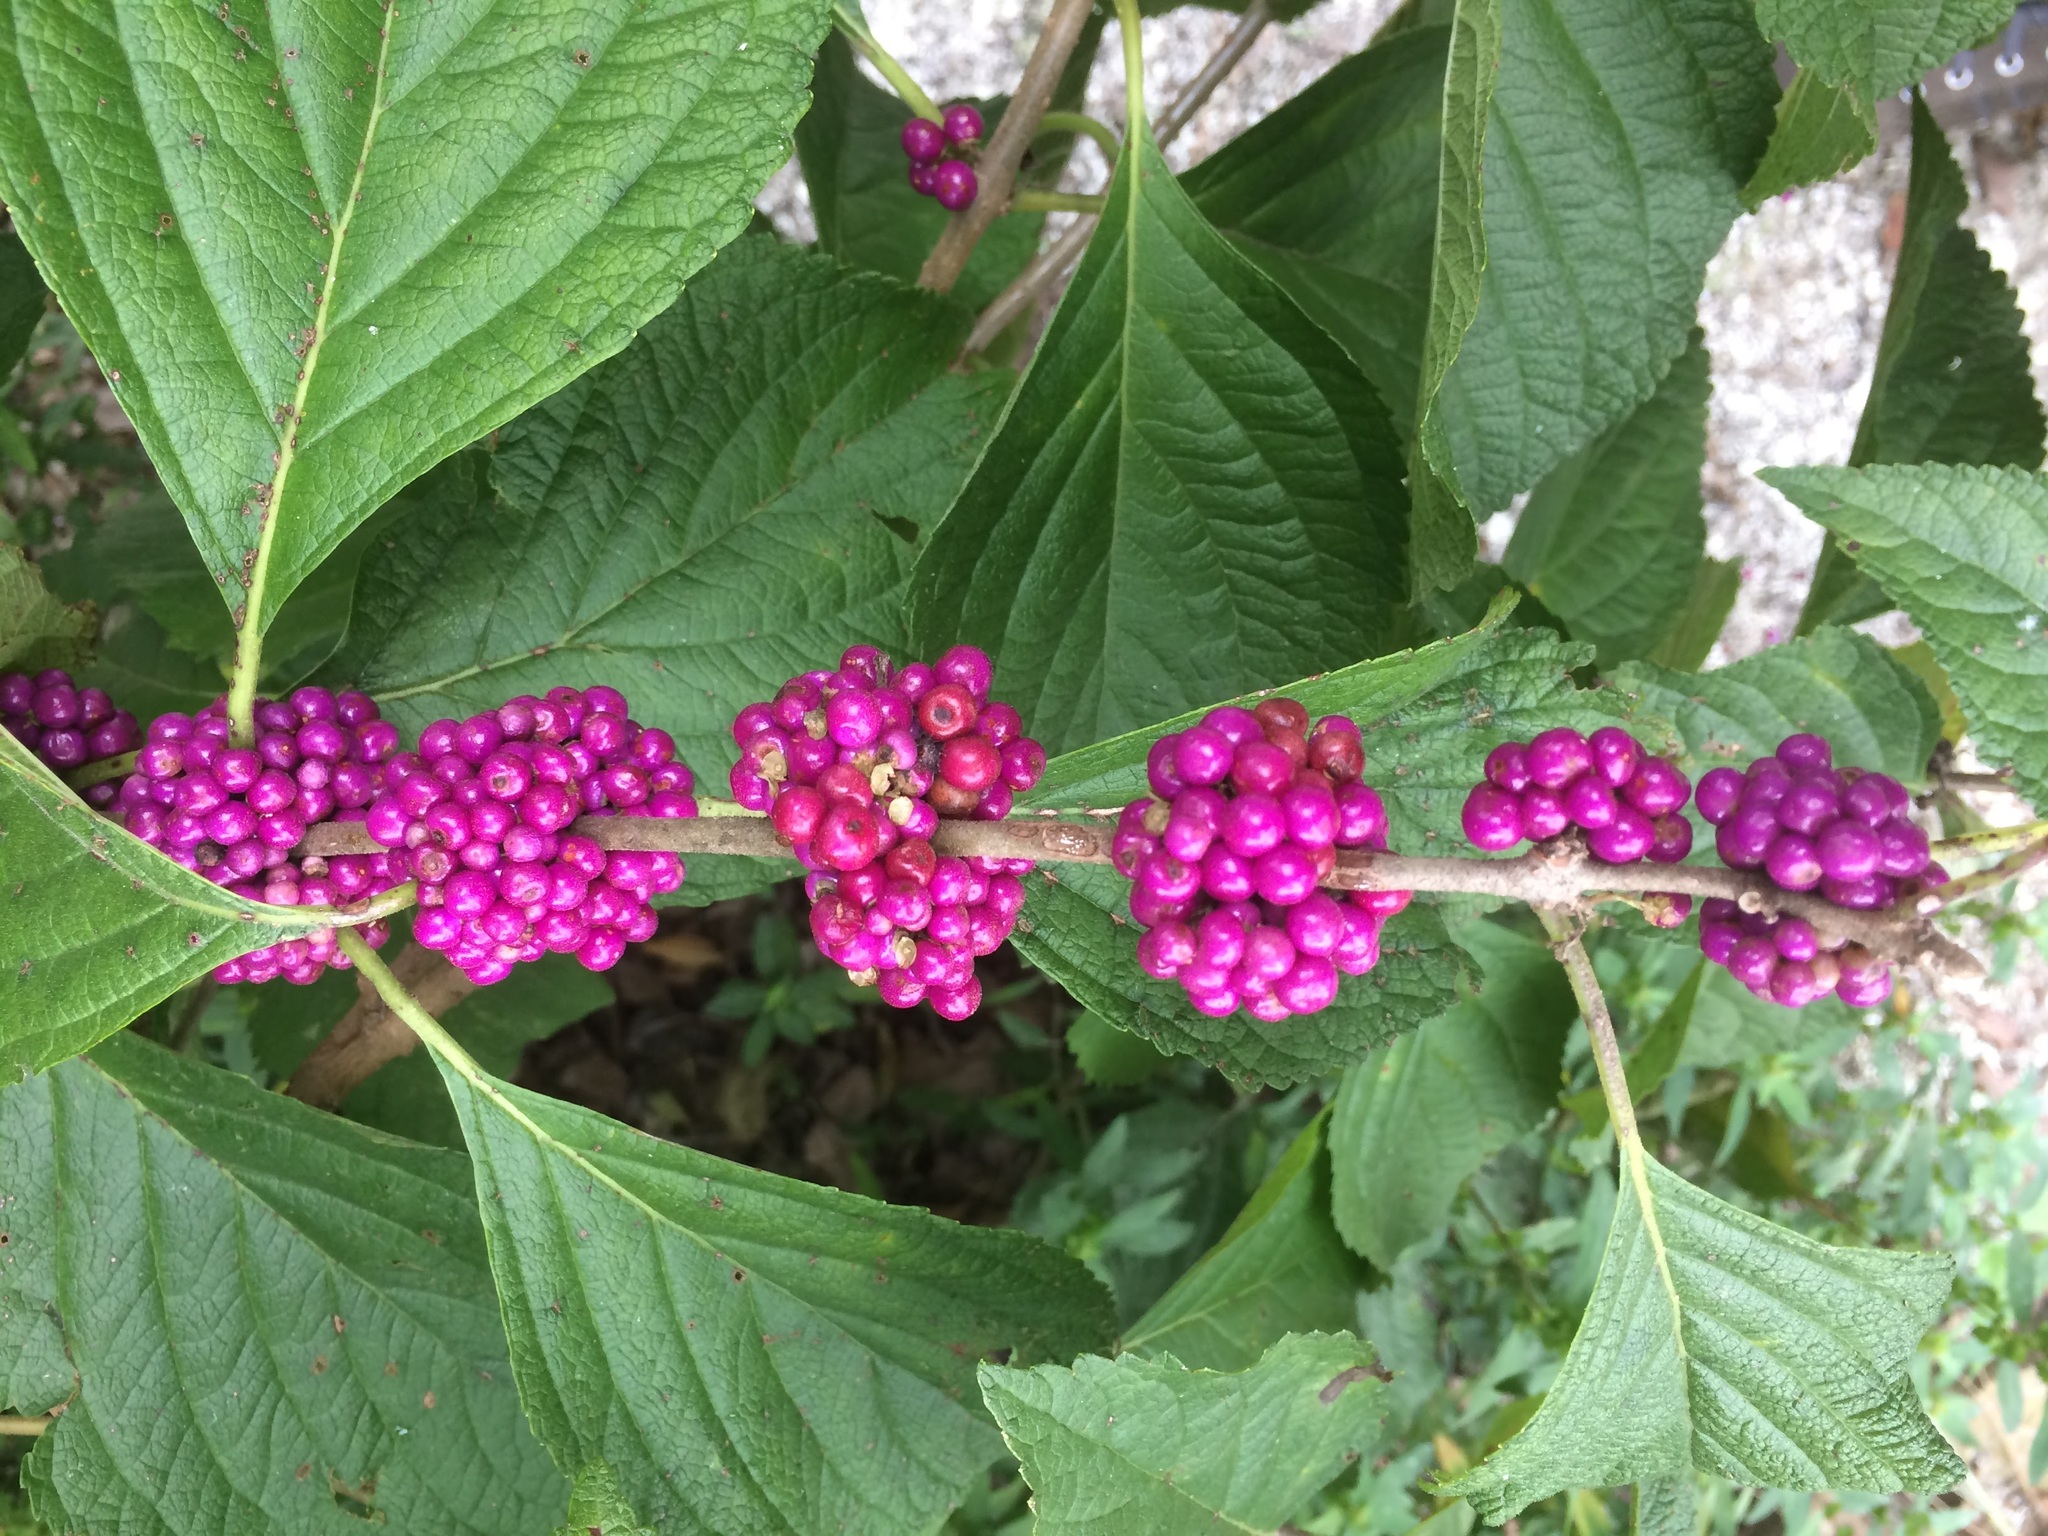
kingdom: Plantae
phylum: Tracheophyta
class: Magnoliopsida
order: Lamiales
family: Lamiaceae
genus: Callicarpa
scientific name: Callicarpa americana
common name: American beautyberry
